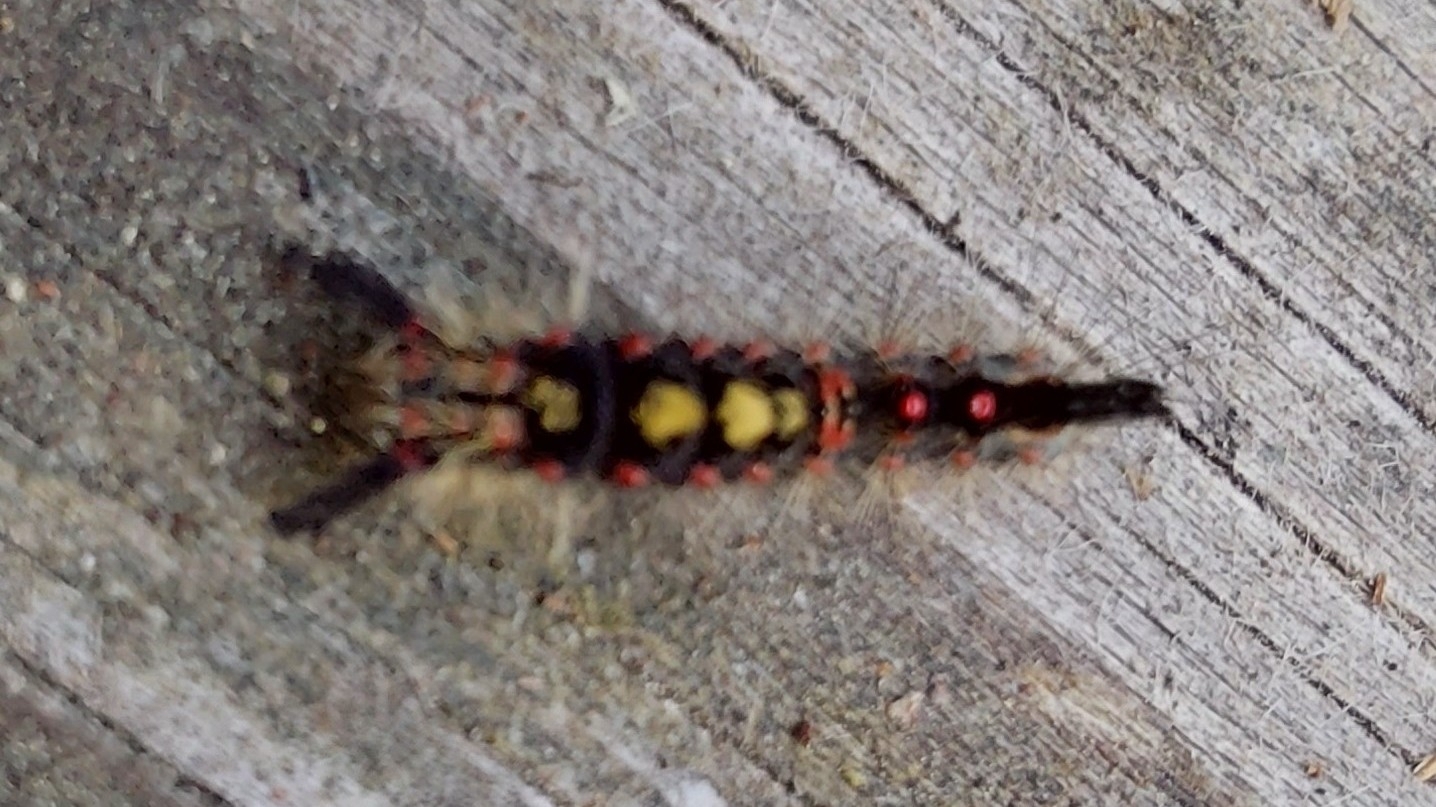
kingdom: Animalia
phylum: Arthropoda
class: Insecta
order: Lepidoptera
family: Erebidae
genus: Orgyia
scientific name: Orgyia antiqua
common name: Vapourer
